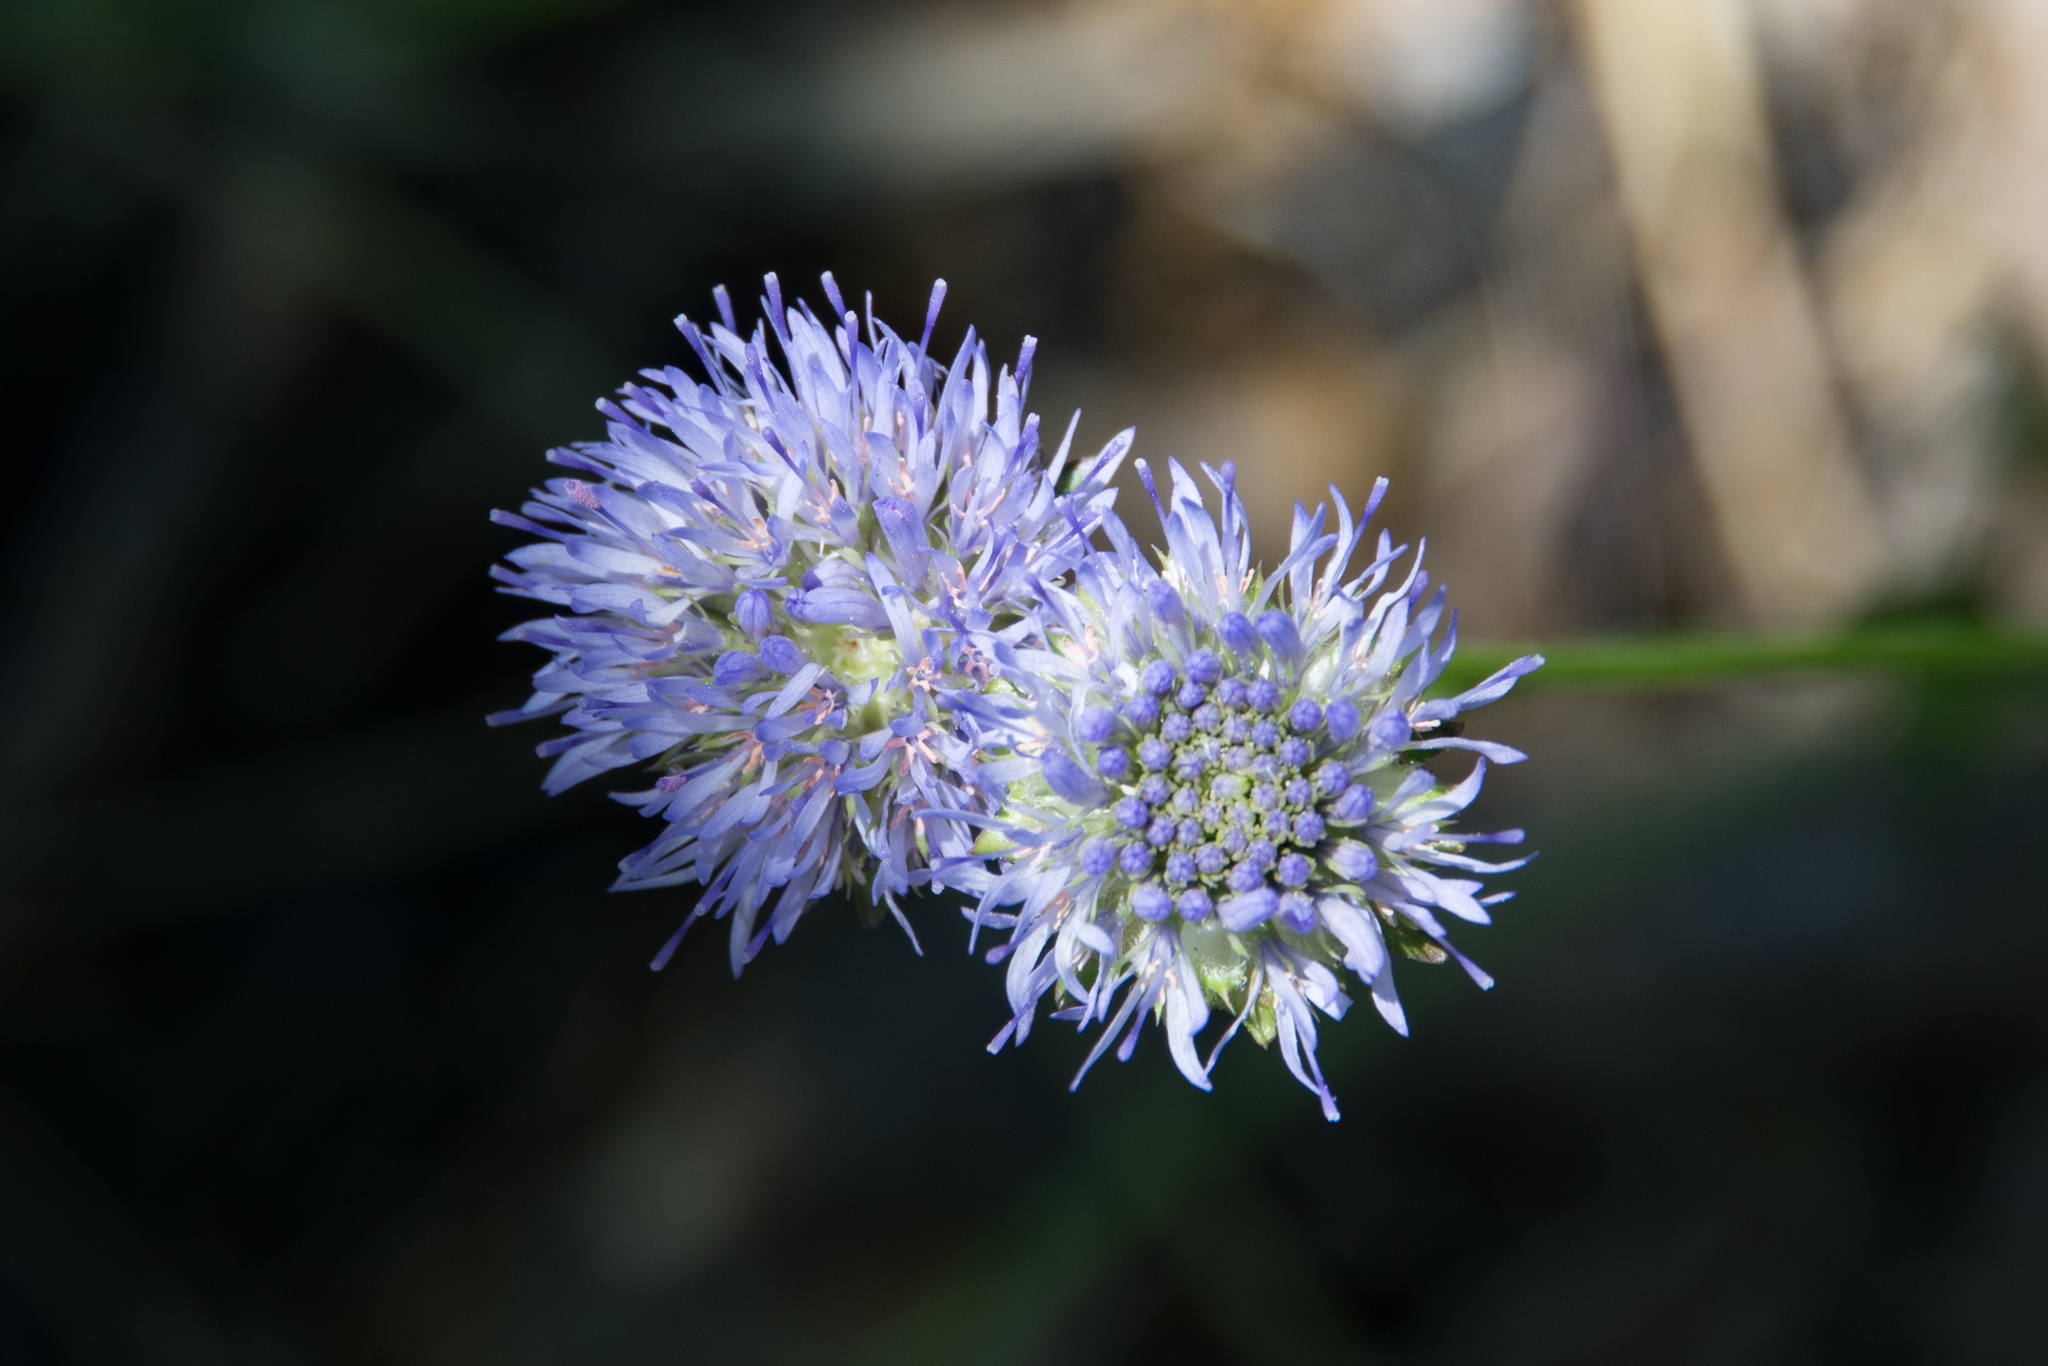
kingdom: Plantae
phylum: Tracheophyta
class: Magnoliopsida
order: Asterales
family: Campanulaceae
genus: Jasione
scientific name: Jasione montana
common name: Sheep's-bit
